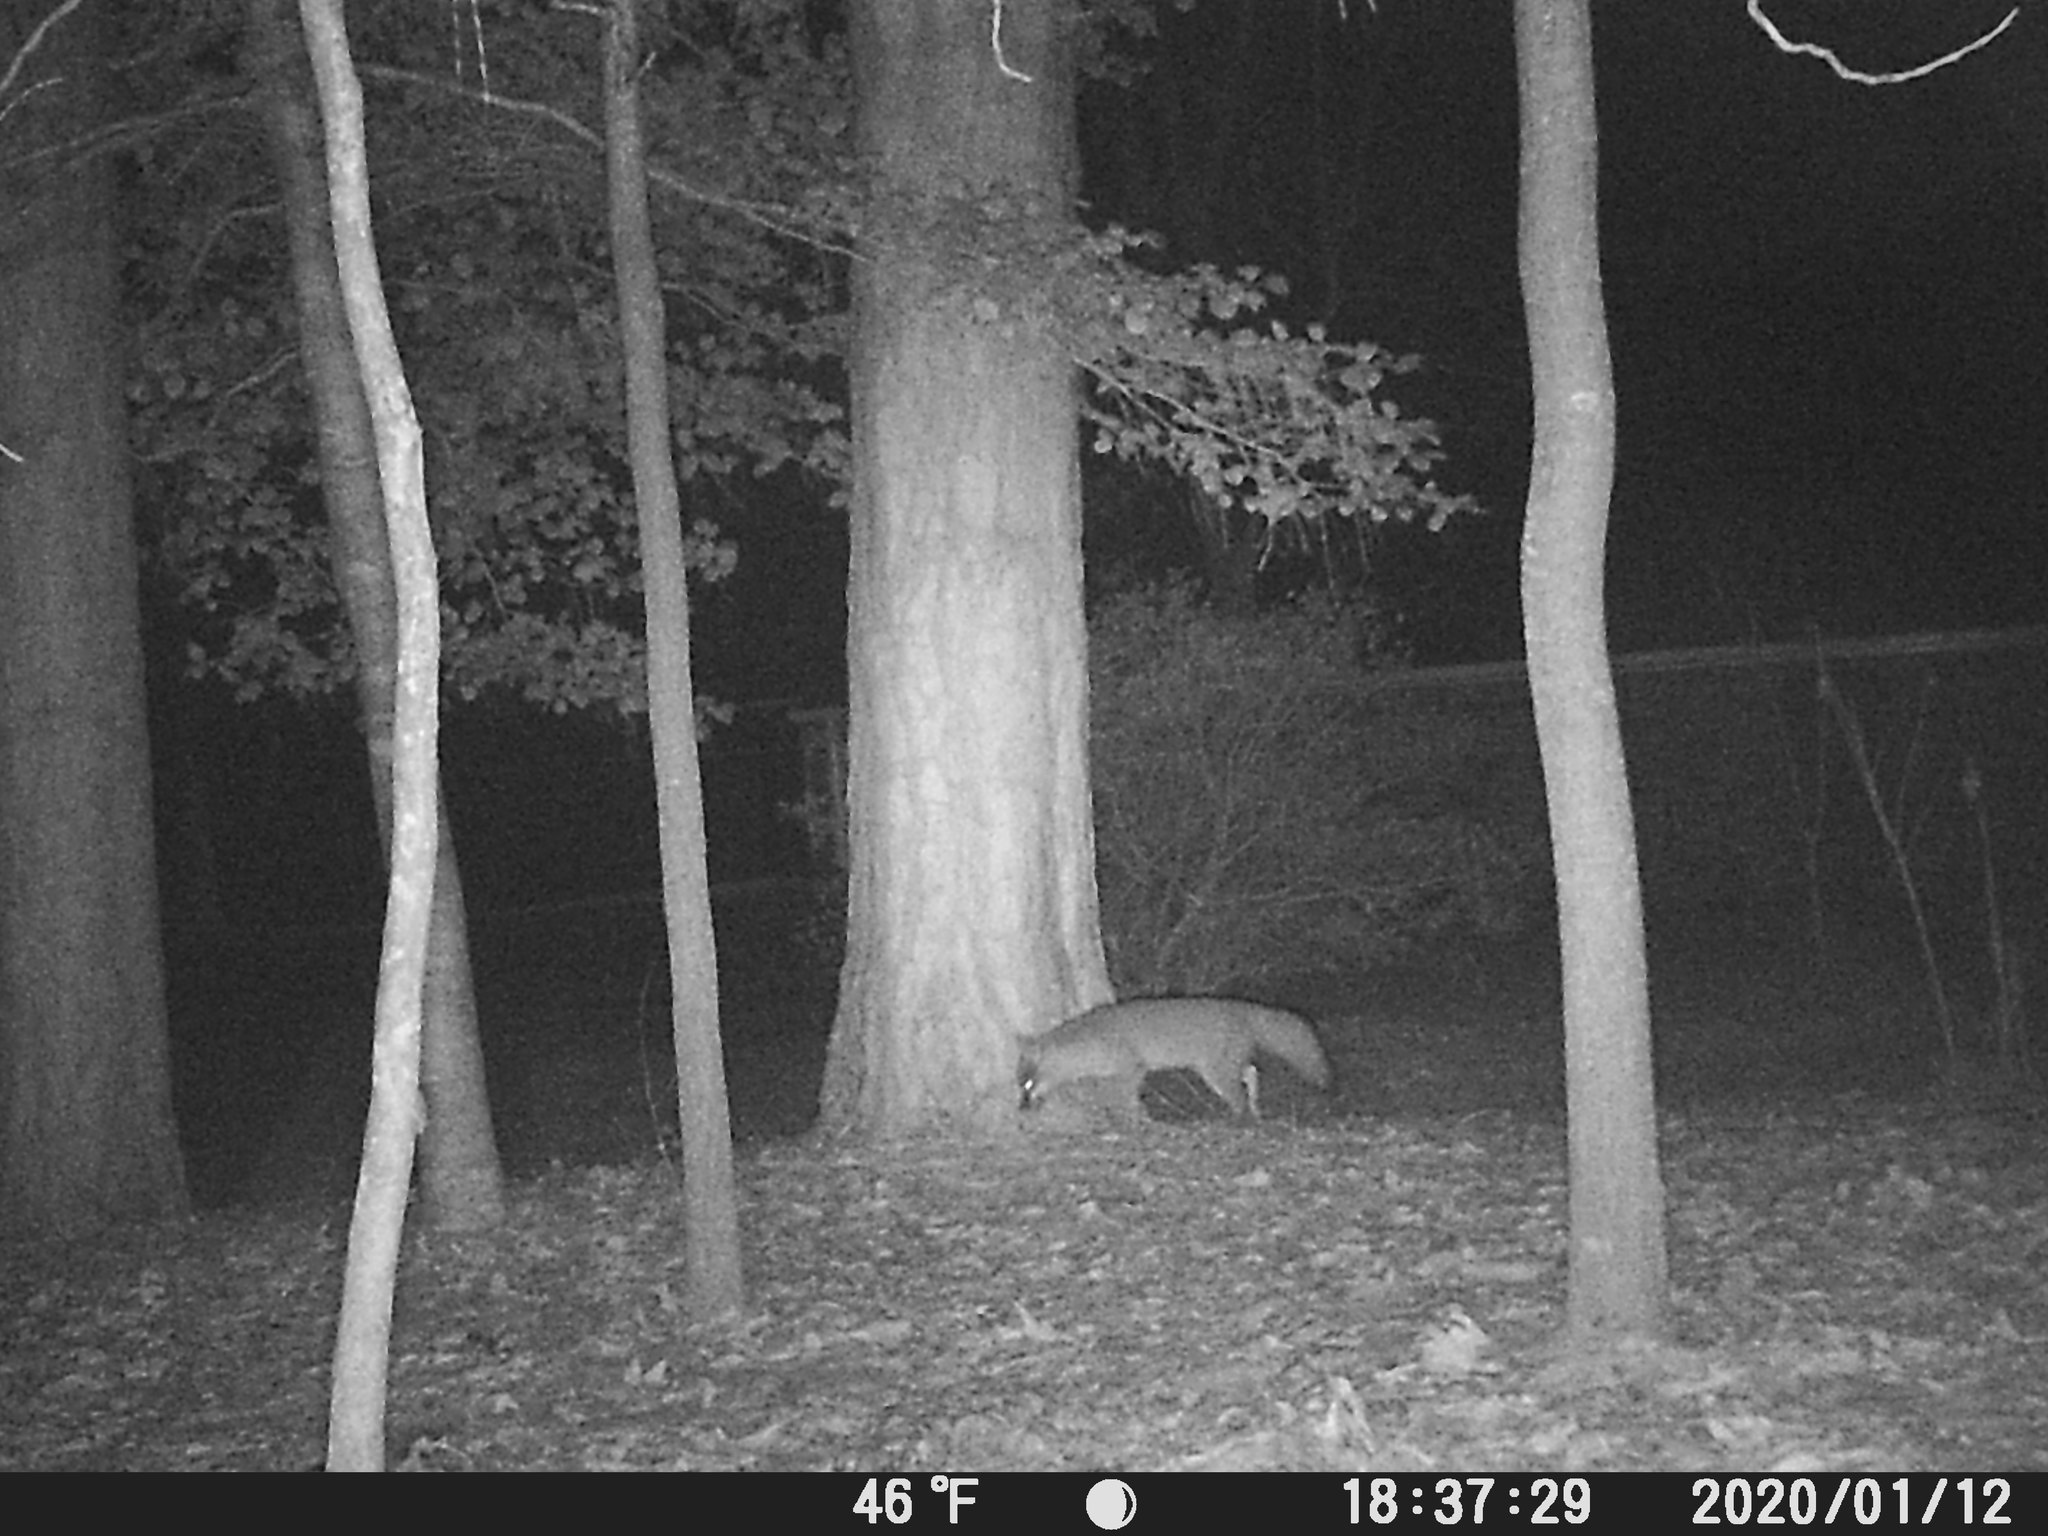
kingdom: Animalia
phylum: Chordata
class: Mammalia
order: Carnivora
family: Canidae
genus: Urocyon
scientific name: Urocyon cinereoargenteus
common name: Gray fox
